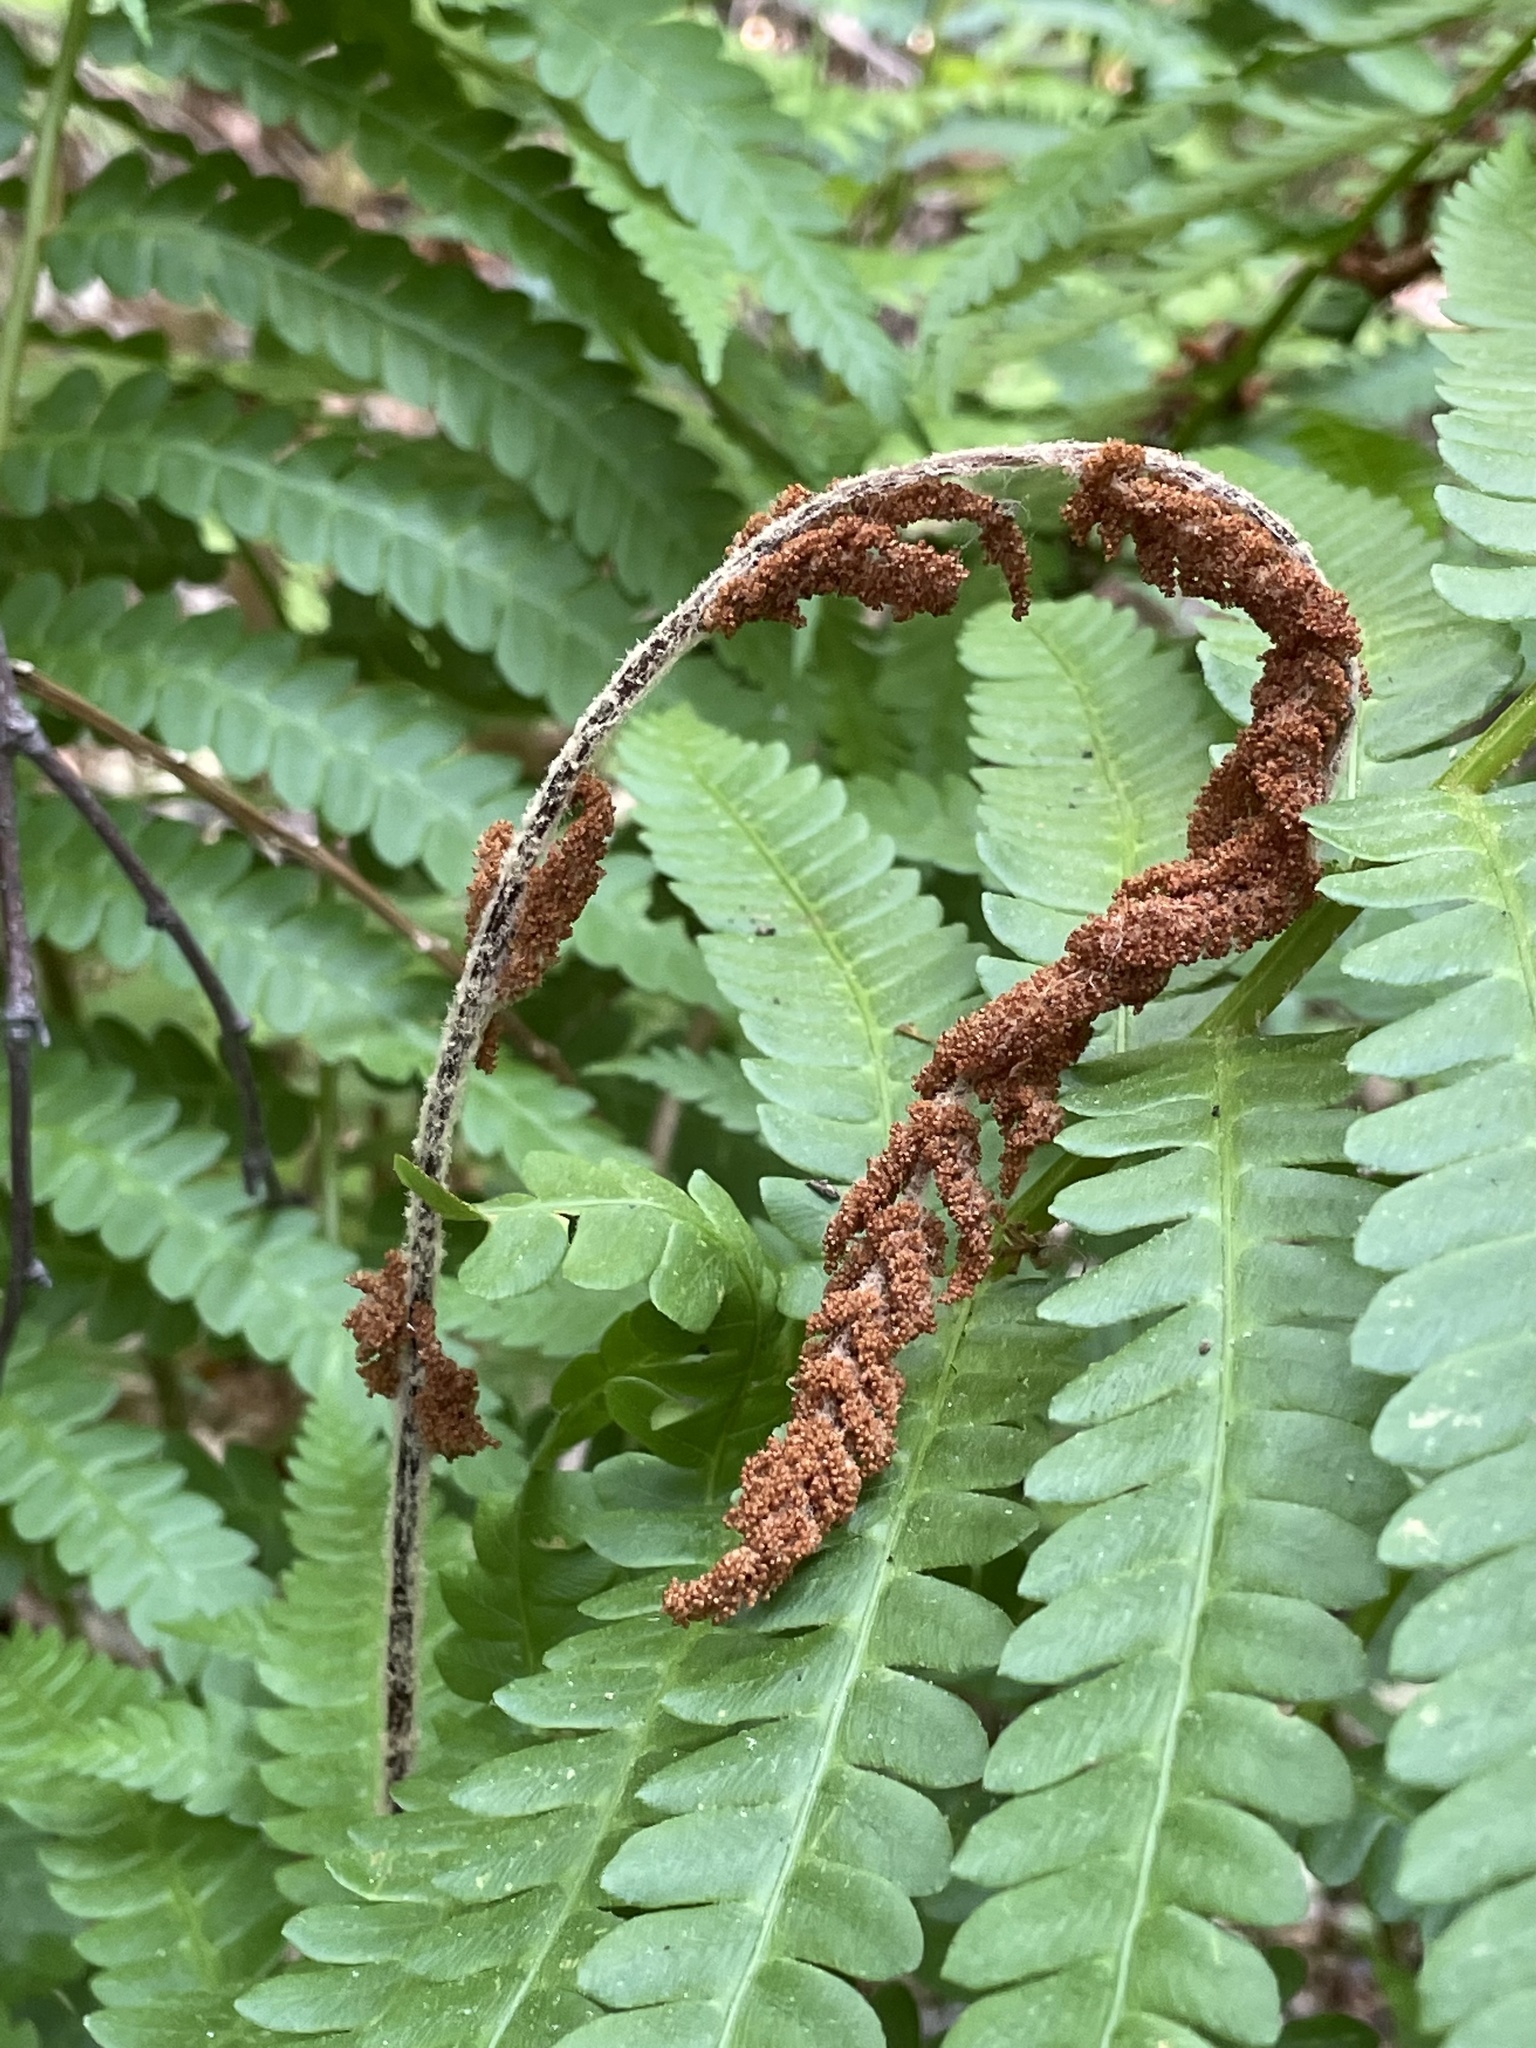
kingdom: Plantae
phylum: Tracheophyta
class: Polypodiopsida
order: Osmundales
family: Osmundaceae
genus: Osmundastrum
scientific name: Osmundastrum cinnamomeum
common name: Cinnamon fern
